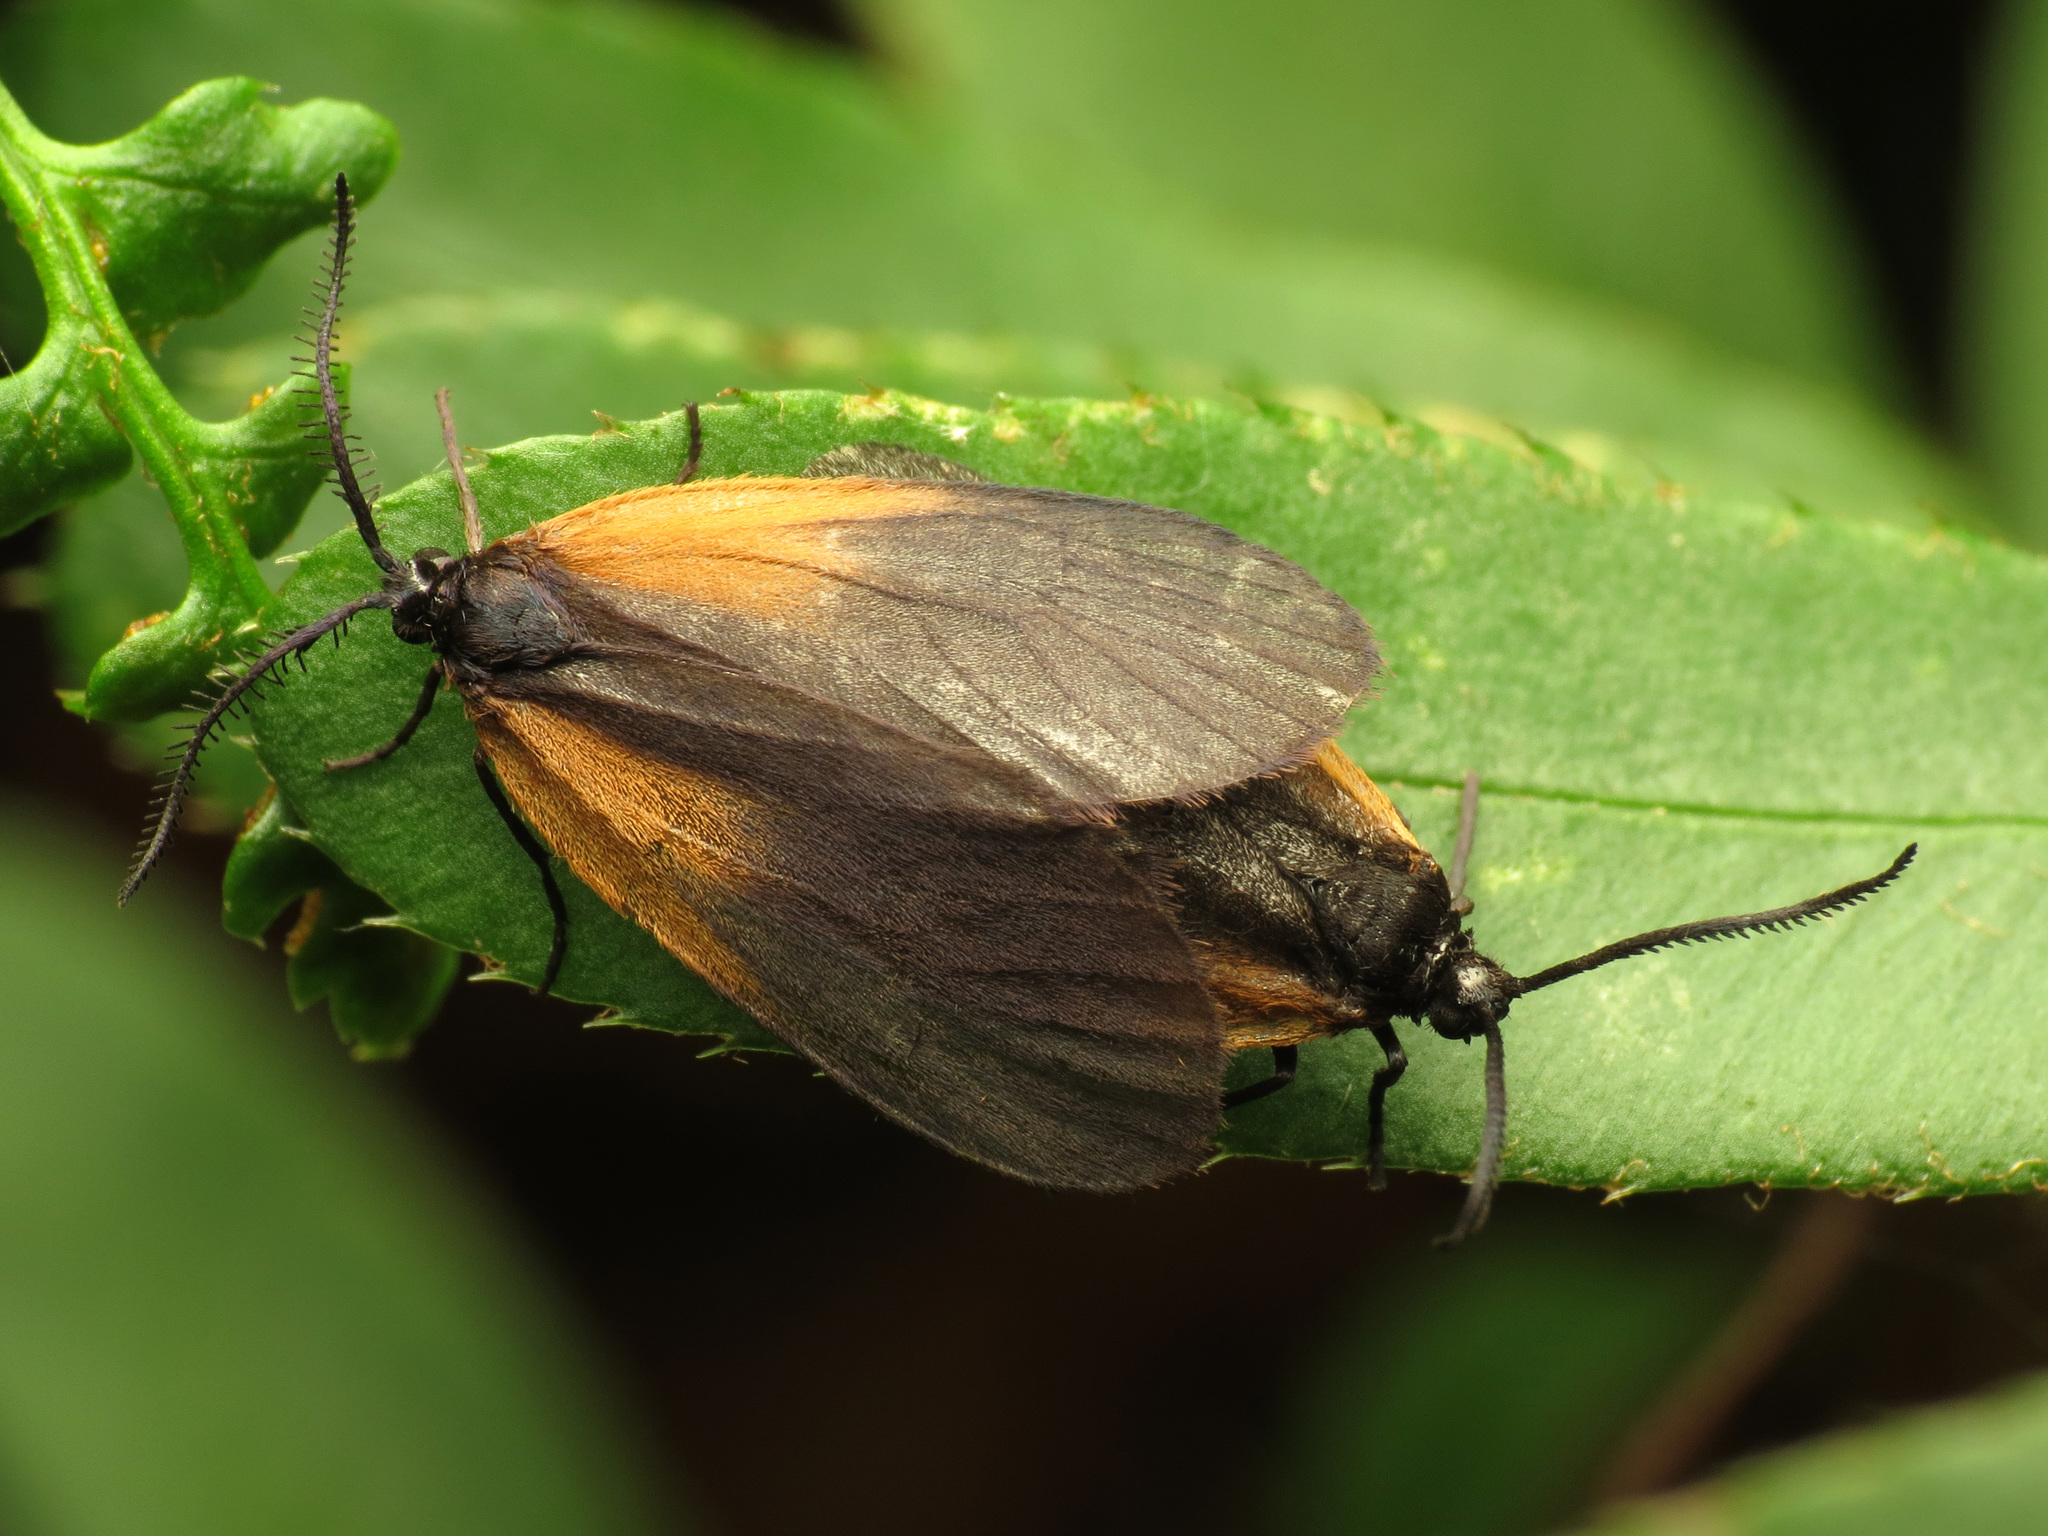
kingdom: Animalia
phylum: Arthropoda
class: Insecta
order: Lepidoptera
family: Zygaenidae
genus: Malthaca
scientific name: Malthaca dimidiata
